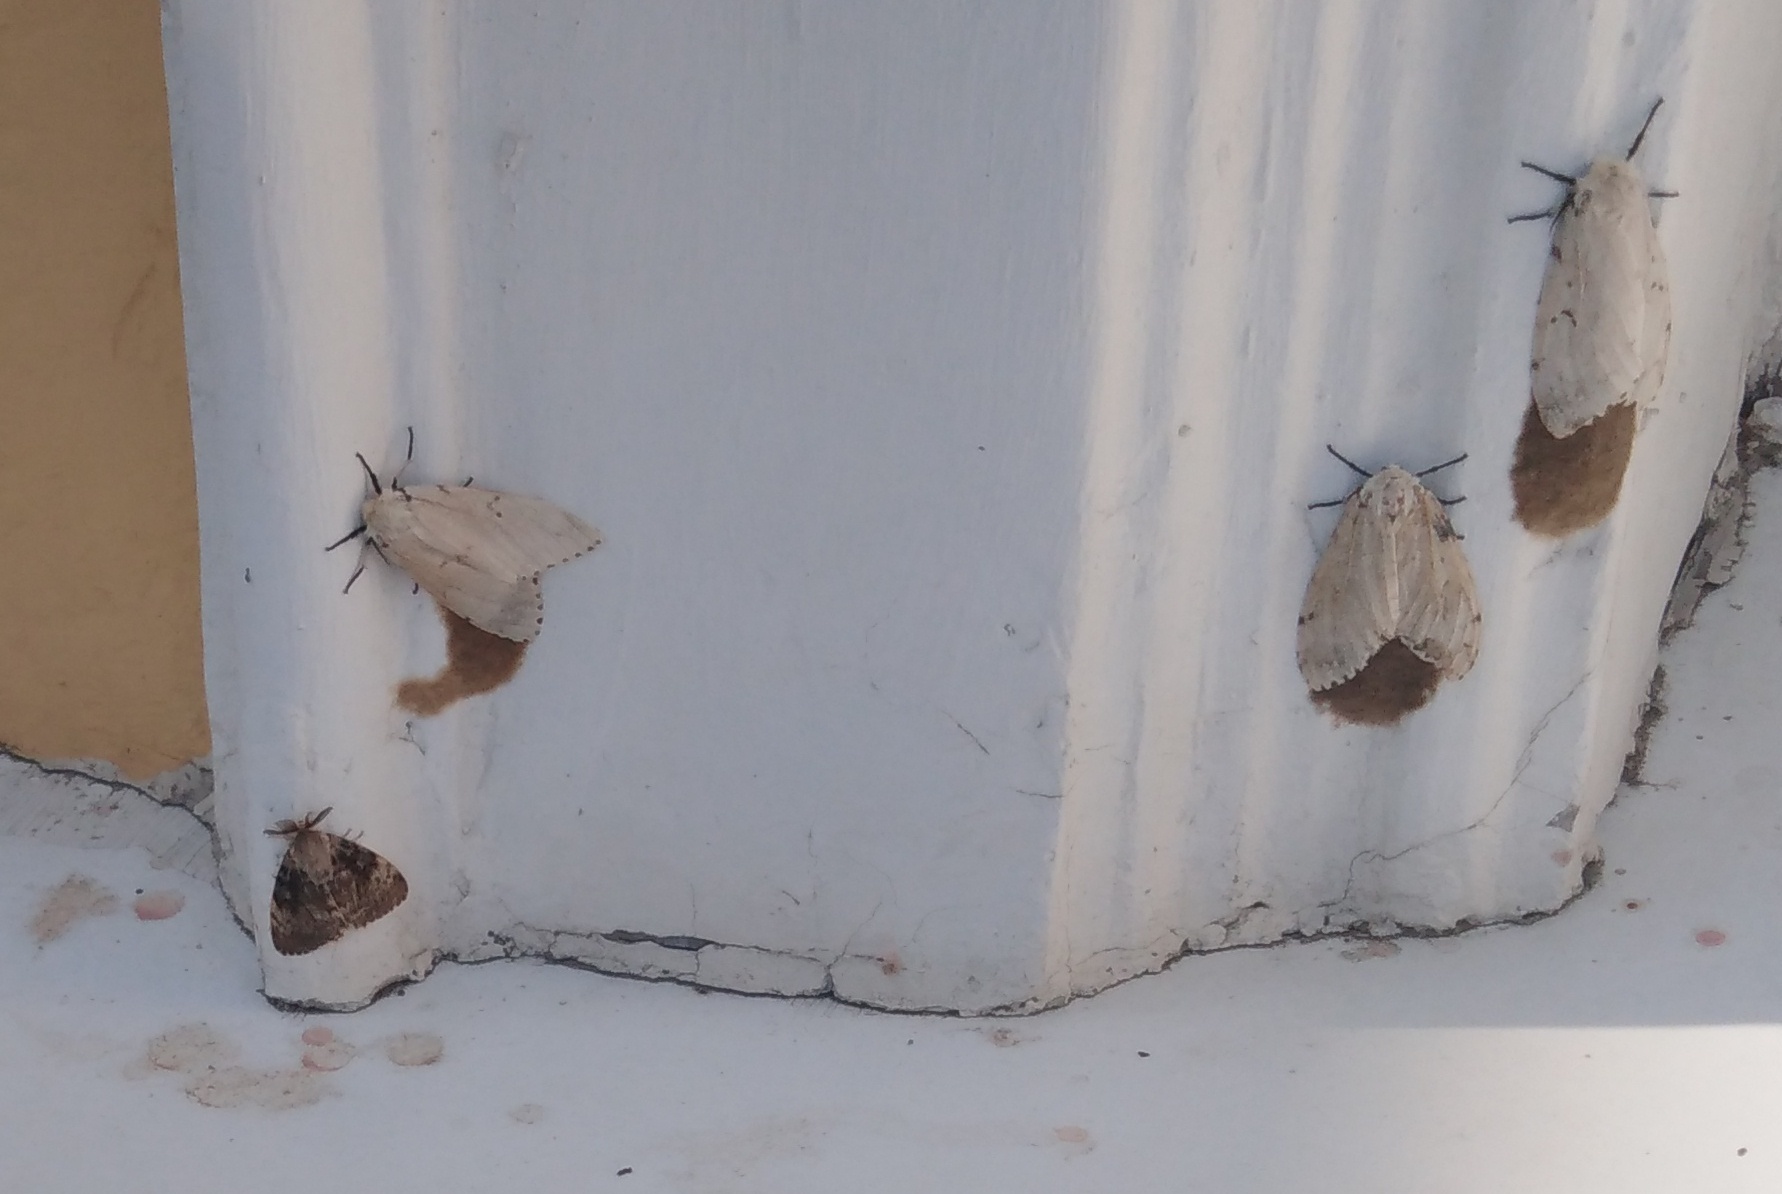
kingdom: Animalia
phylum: Arthropoda
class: Insecta
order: Lepidoptera
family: Erebidae
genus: Lymantria
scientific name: Lymantria dispar
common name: Gypsy moth
